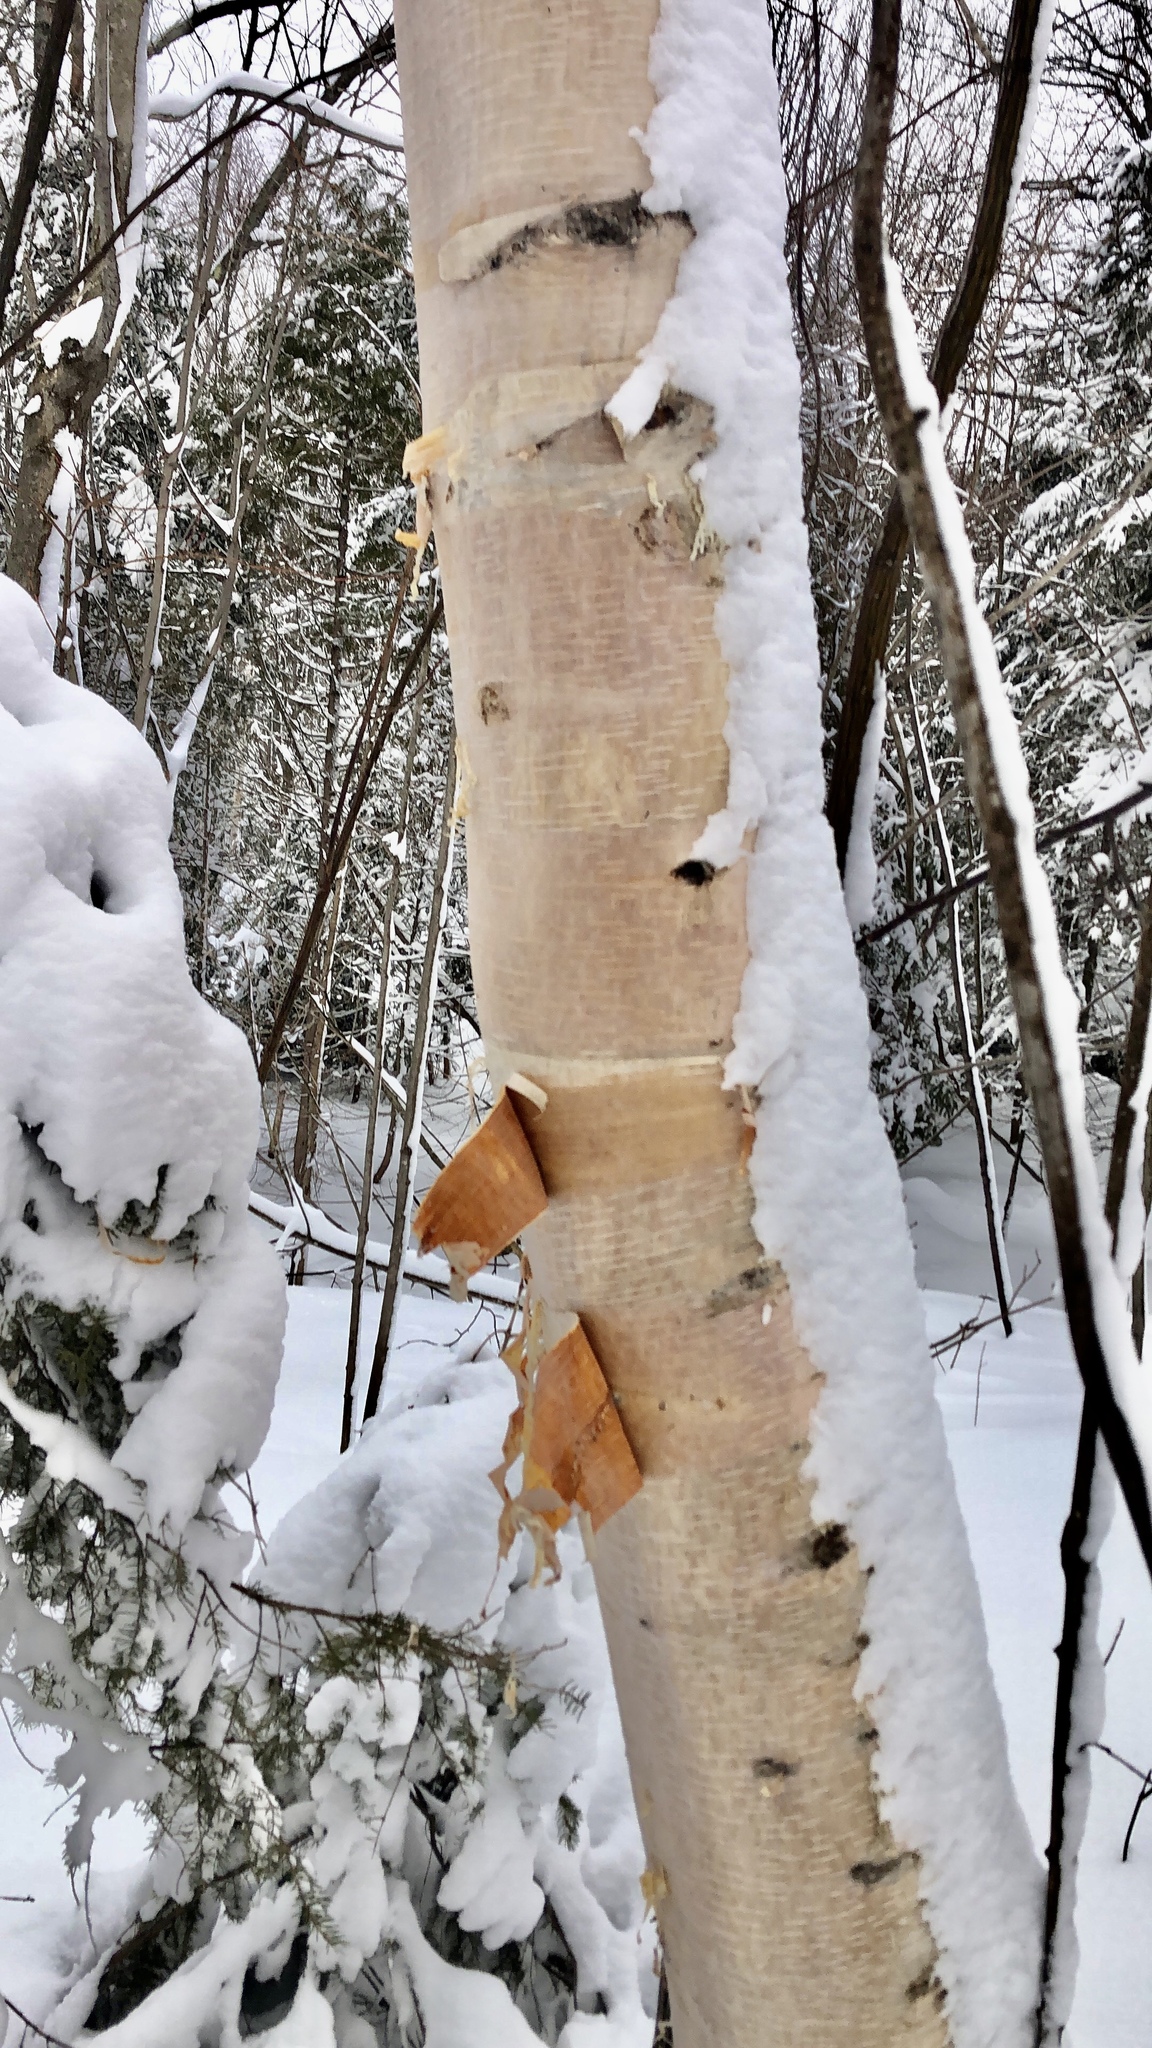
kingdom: Plantae
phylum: Tracheophyta
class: Magnoliopsida
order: Fagales
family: Betulaceae
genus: Betula
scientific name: Betula papyrifera
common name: Paper birch
